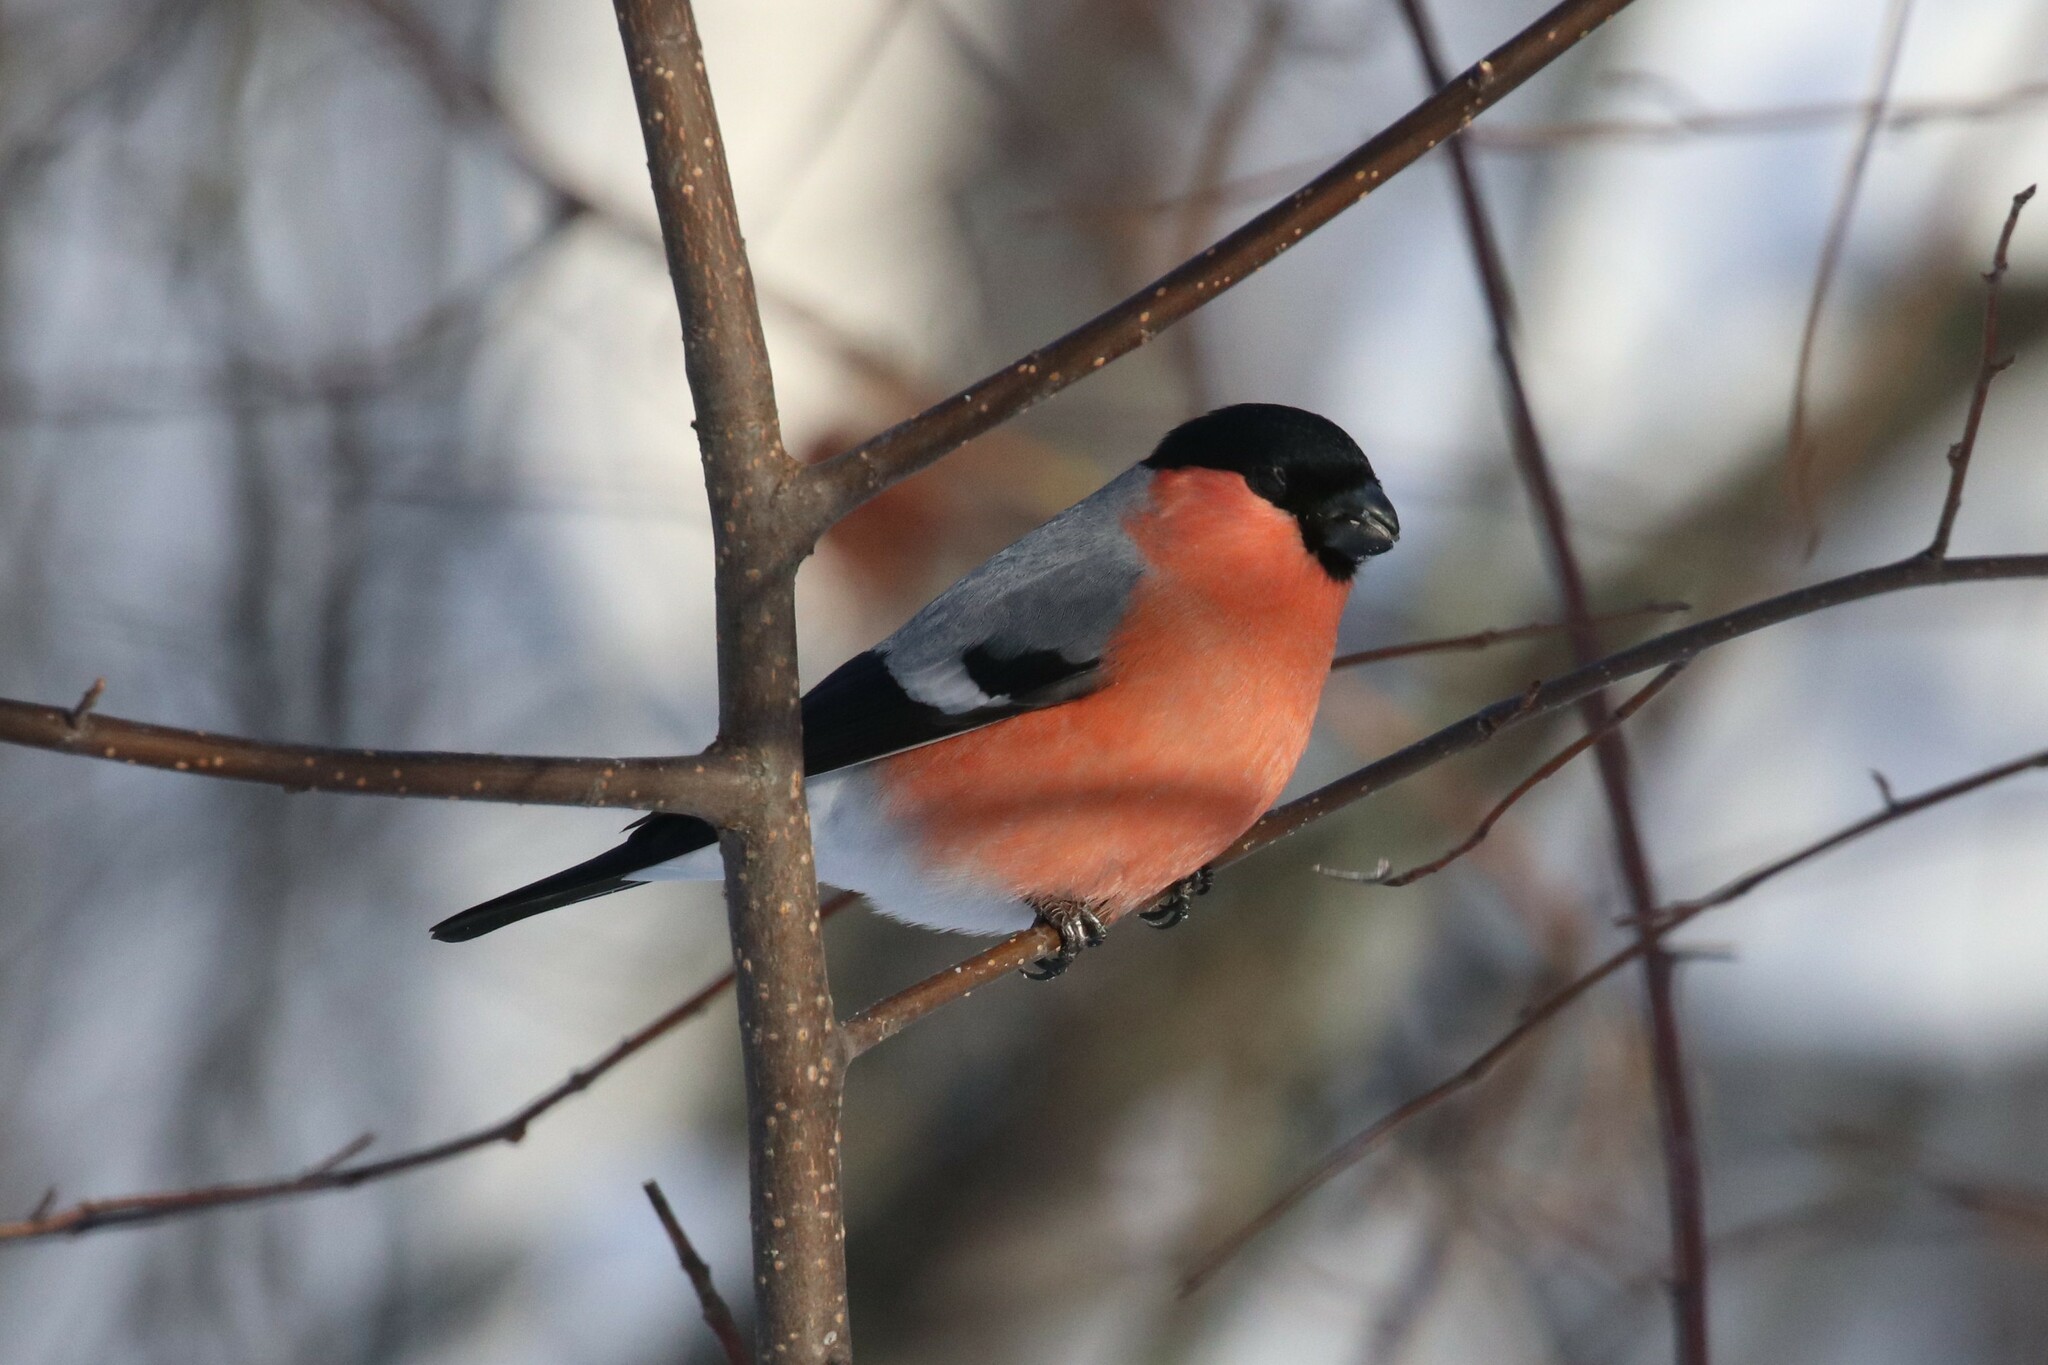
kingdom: Animalia
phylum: Chordata
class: Aves
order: Passeriformes
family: Fringillidae
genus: Pyrrhula
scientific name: Pyrrhula pyrrhula
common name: Eurasian bullfinch
